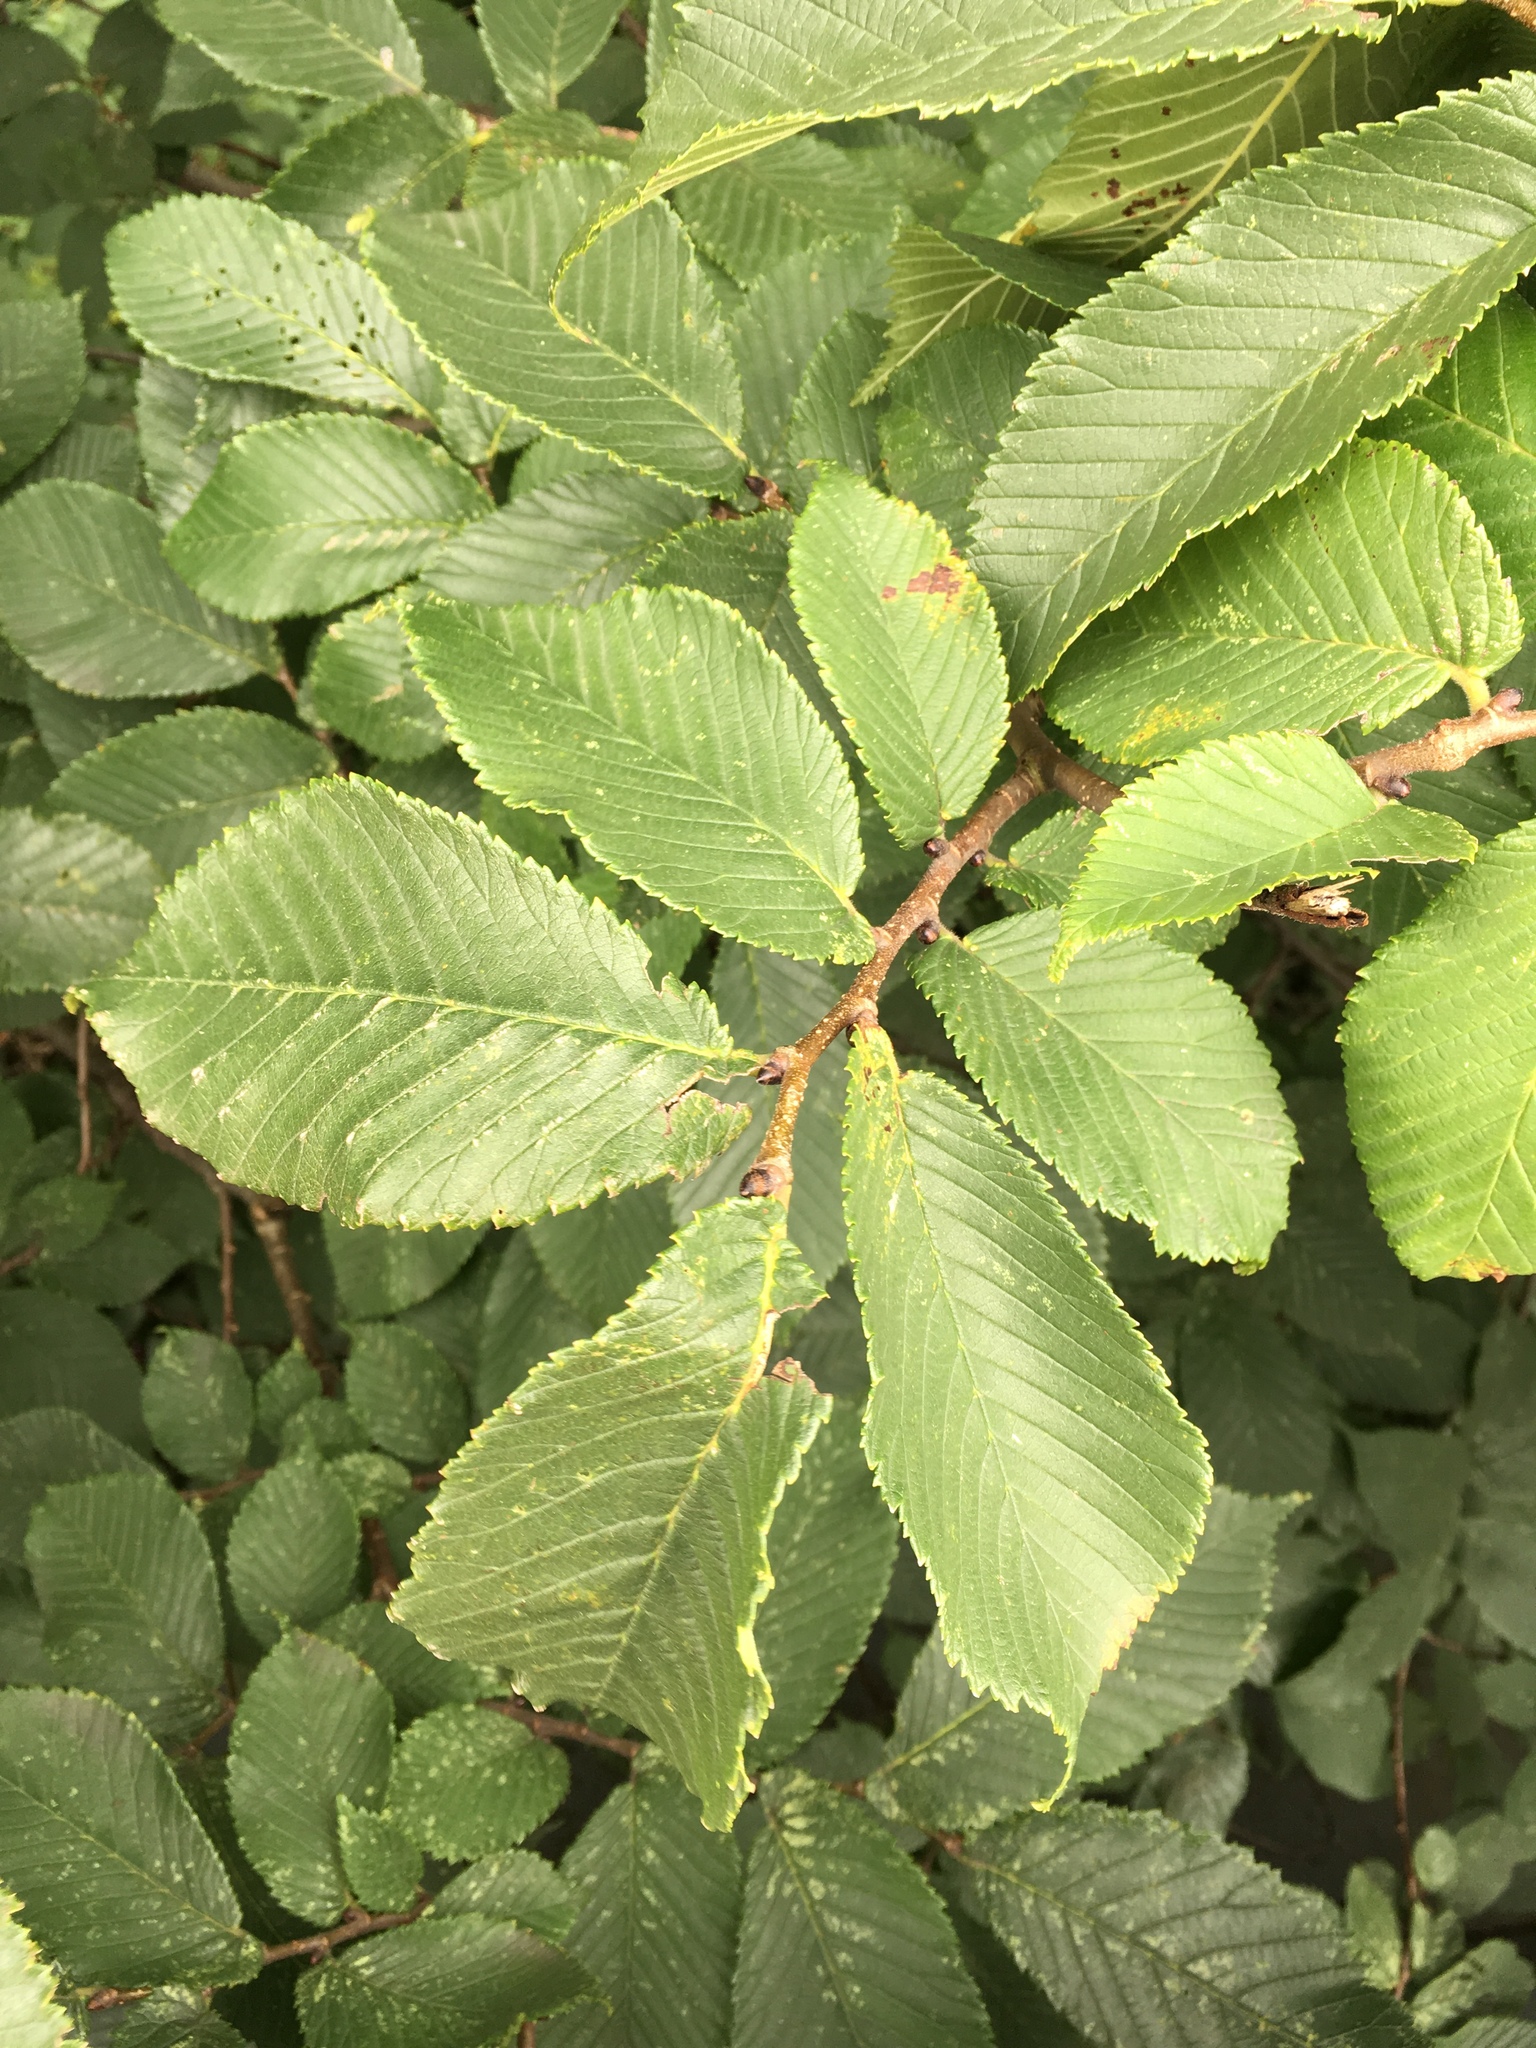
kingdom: Plantae
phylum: Tracheophyta
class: Magnoliopsida
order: Rosales
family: Ulmaceae
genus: Ulmus
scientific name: Ulmus glabra
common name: Wych elm
